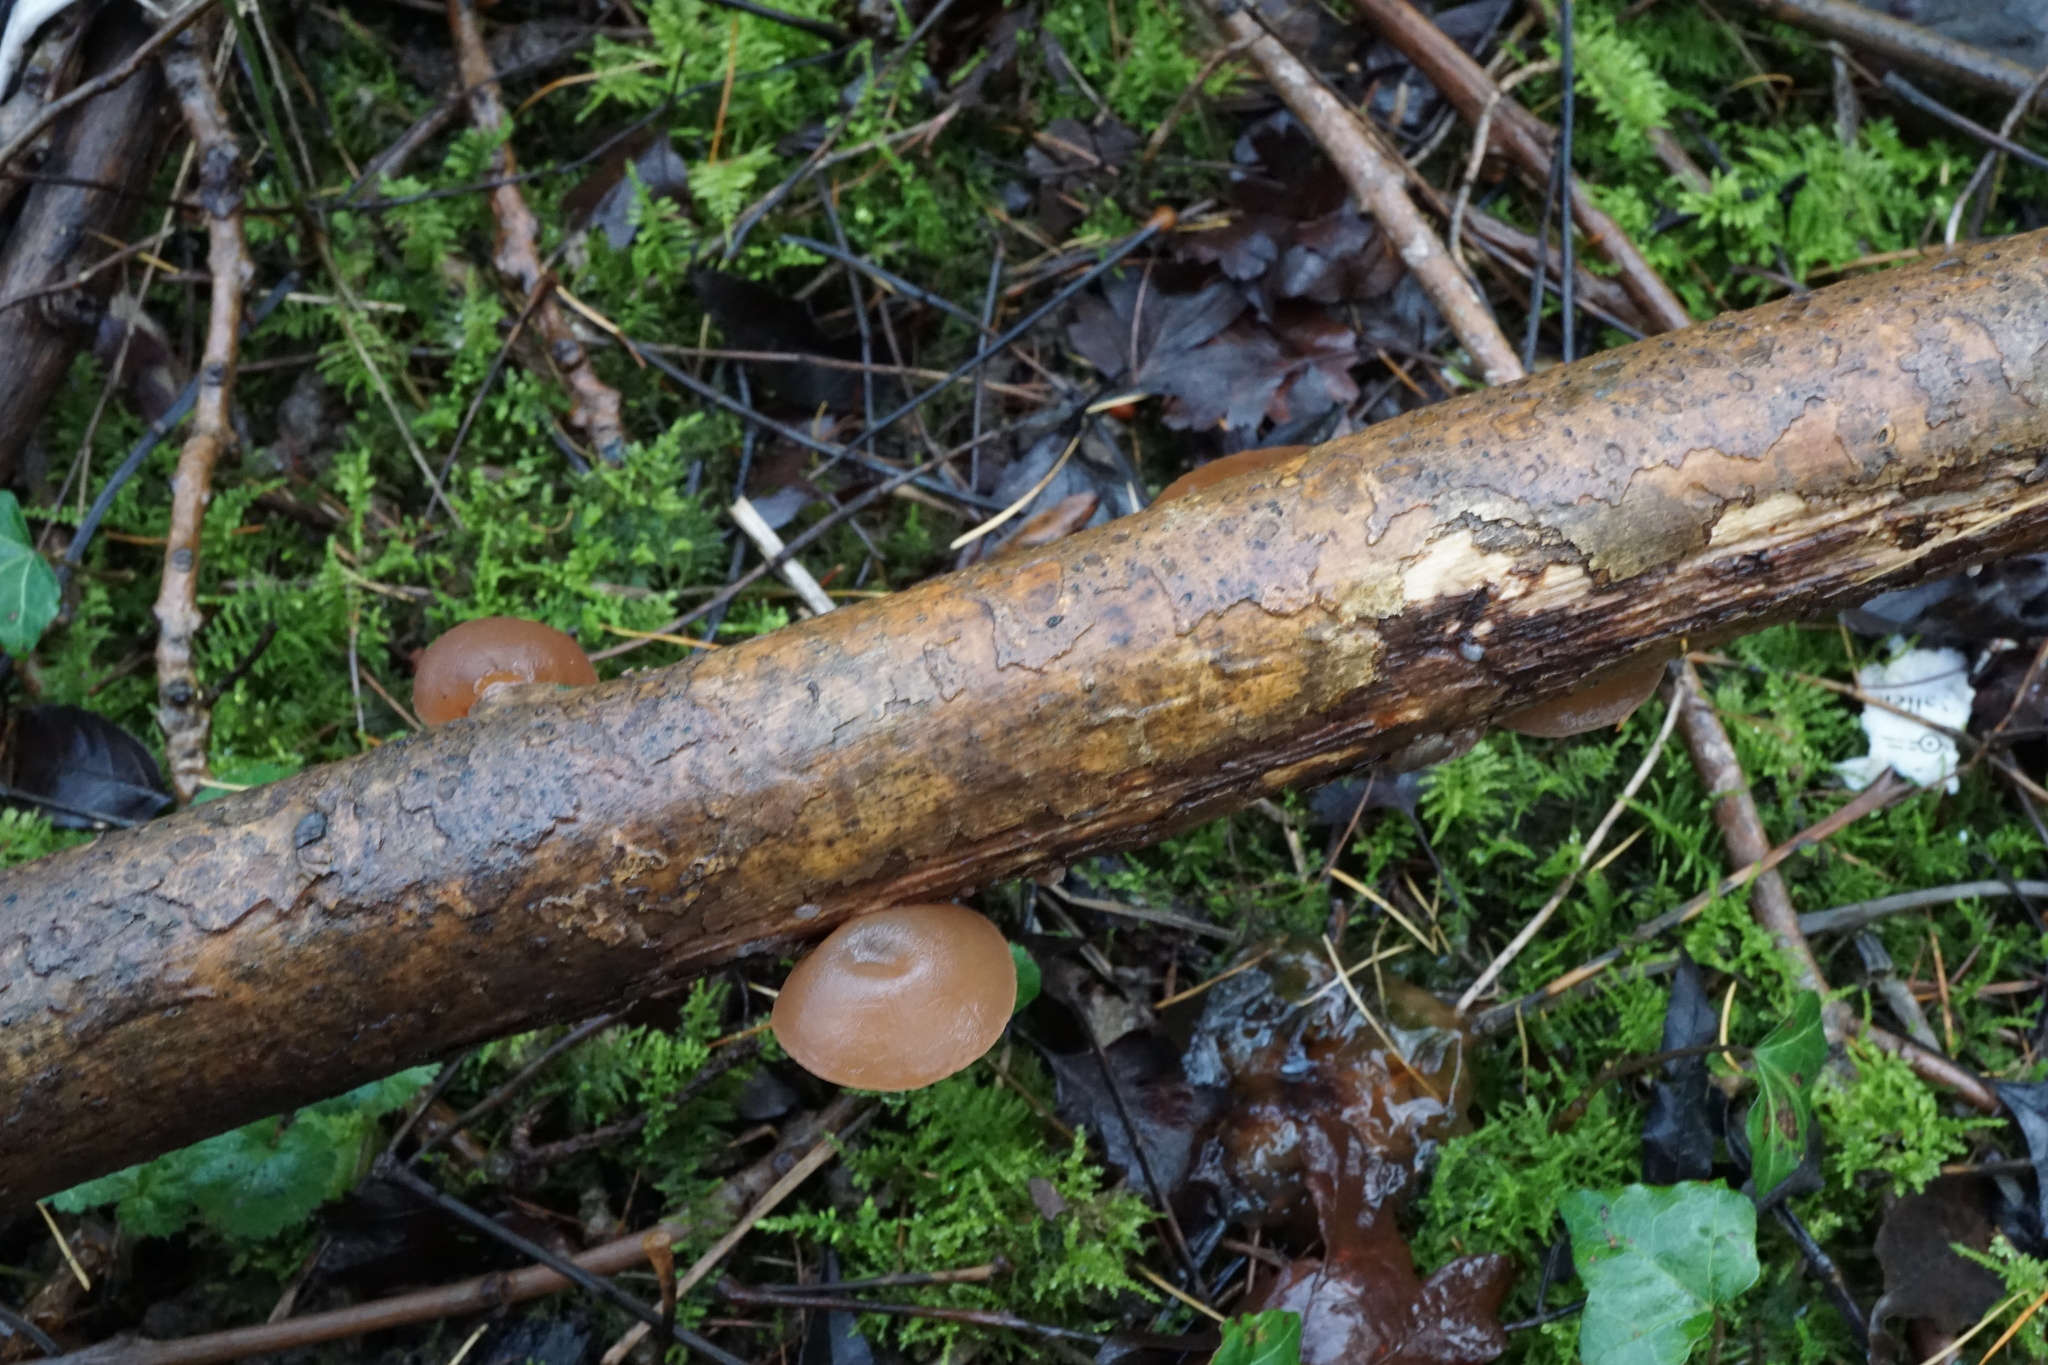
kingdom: Fungi
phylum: Basidiomycota
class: Agaricomycetes
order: Auriculariales
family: Auriculariaceae
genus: Auricularia
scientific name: Auricularia auricula-judae
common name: Jelly ear
